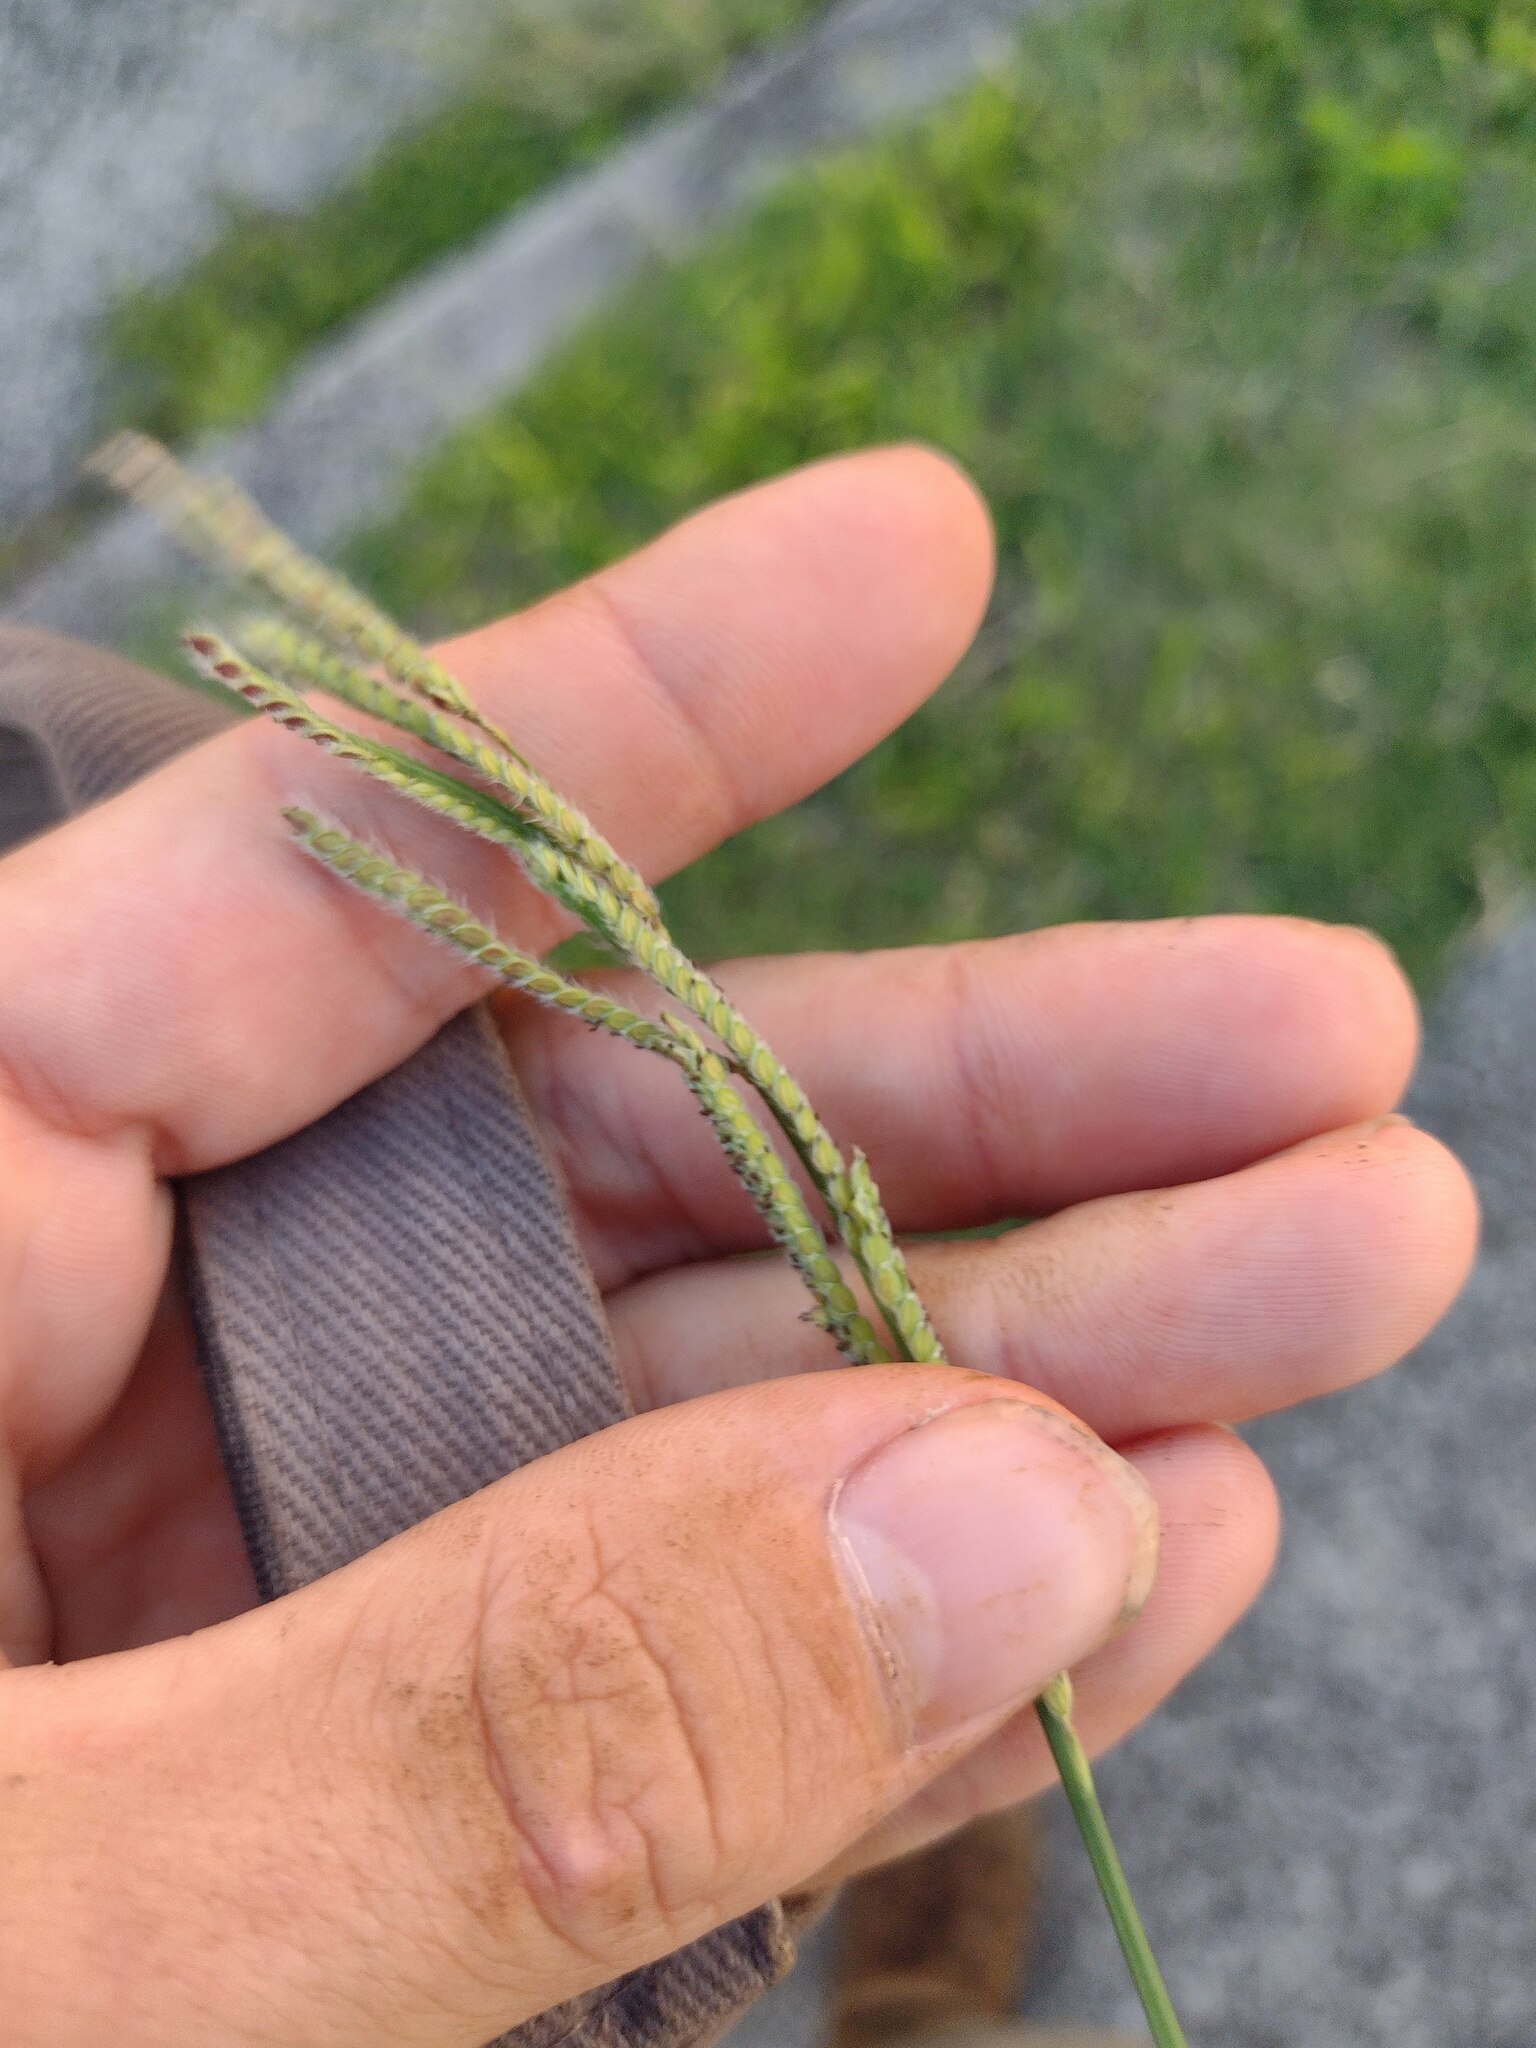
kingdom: Plantae
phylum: Tracheophyta
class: Liliopsida
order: Poales
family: Poaceae
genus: Paspalum
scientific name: Paspalum urvillei
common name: Vasey's grass
